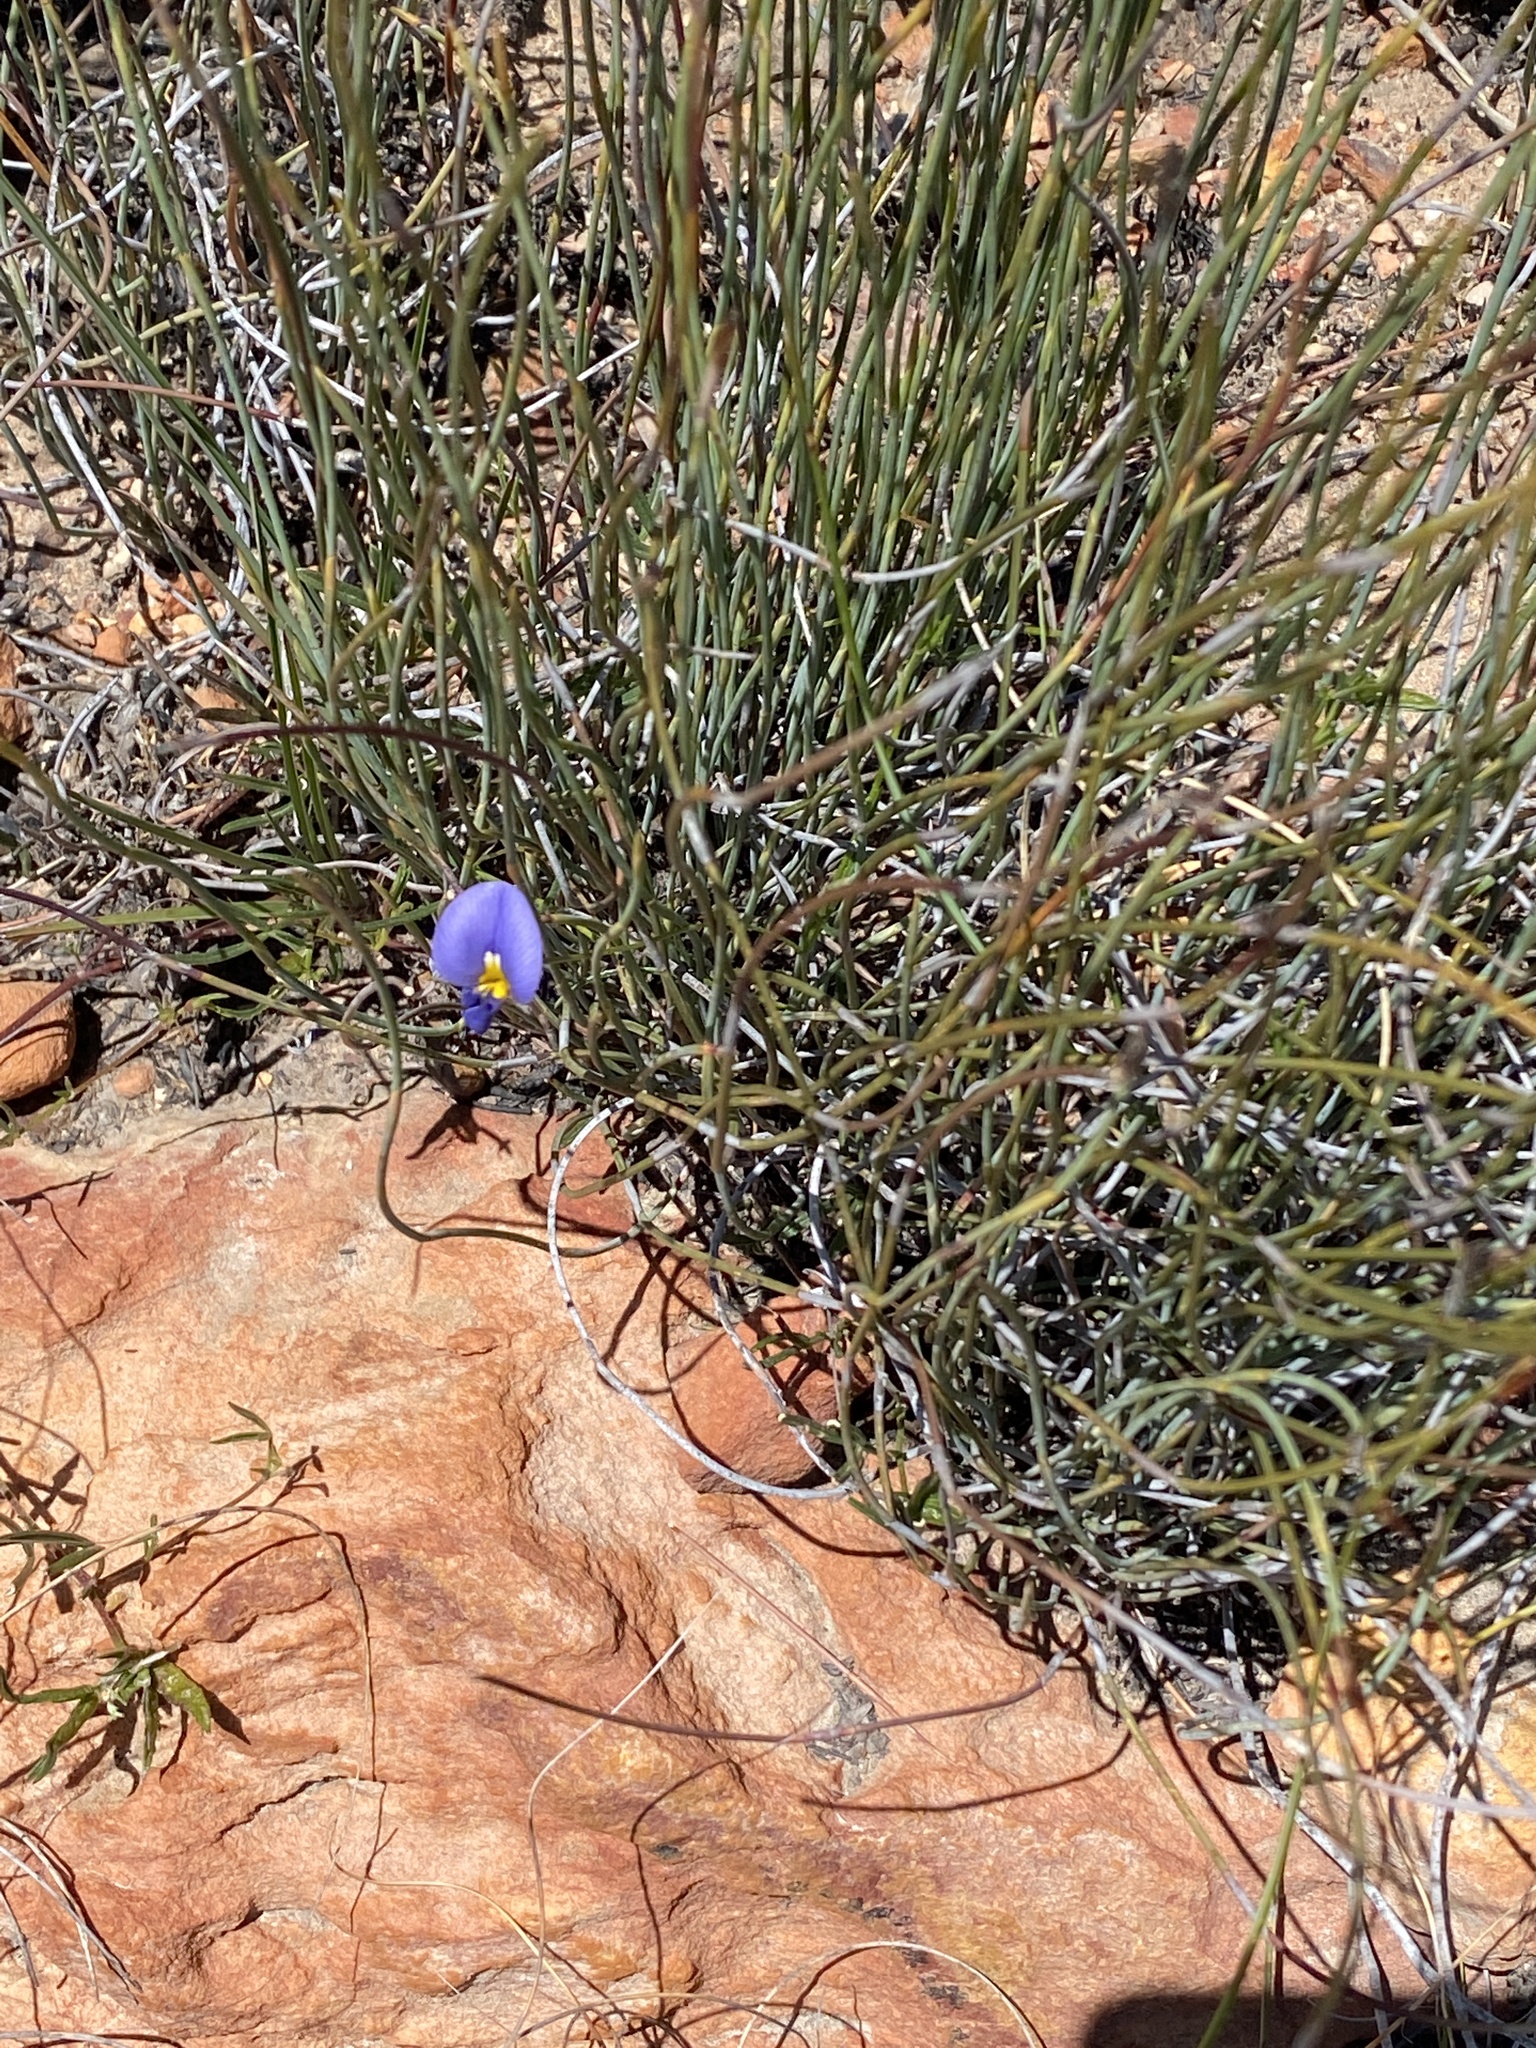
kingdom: Plantae
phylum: Tracheophyta
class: Magnoliopsida
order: Fabales
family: Fabaceae
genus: Lotononis
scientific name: Lotononis filiformis
